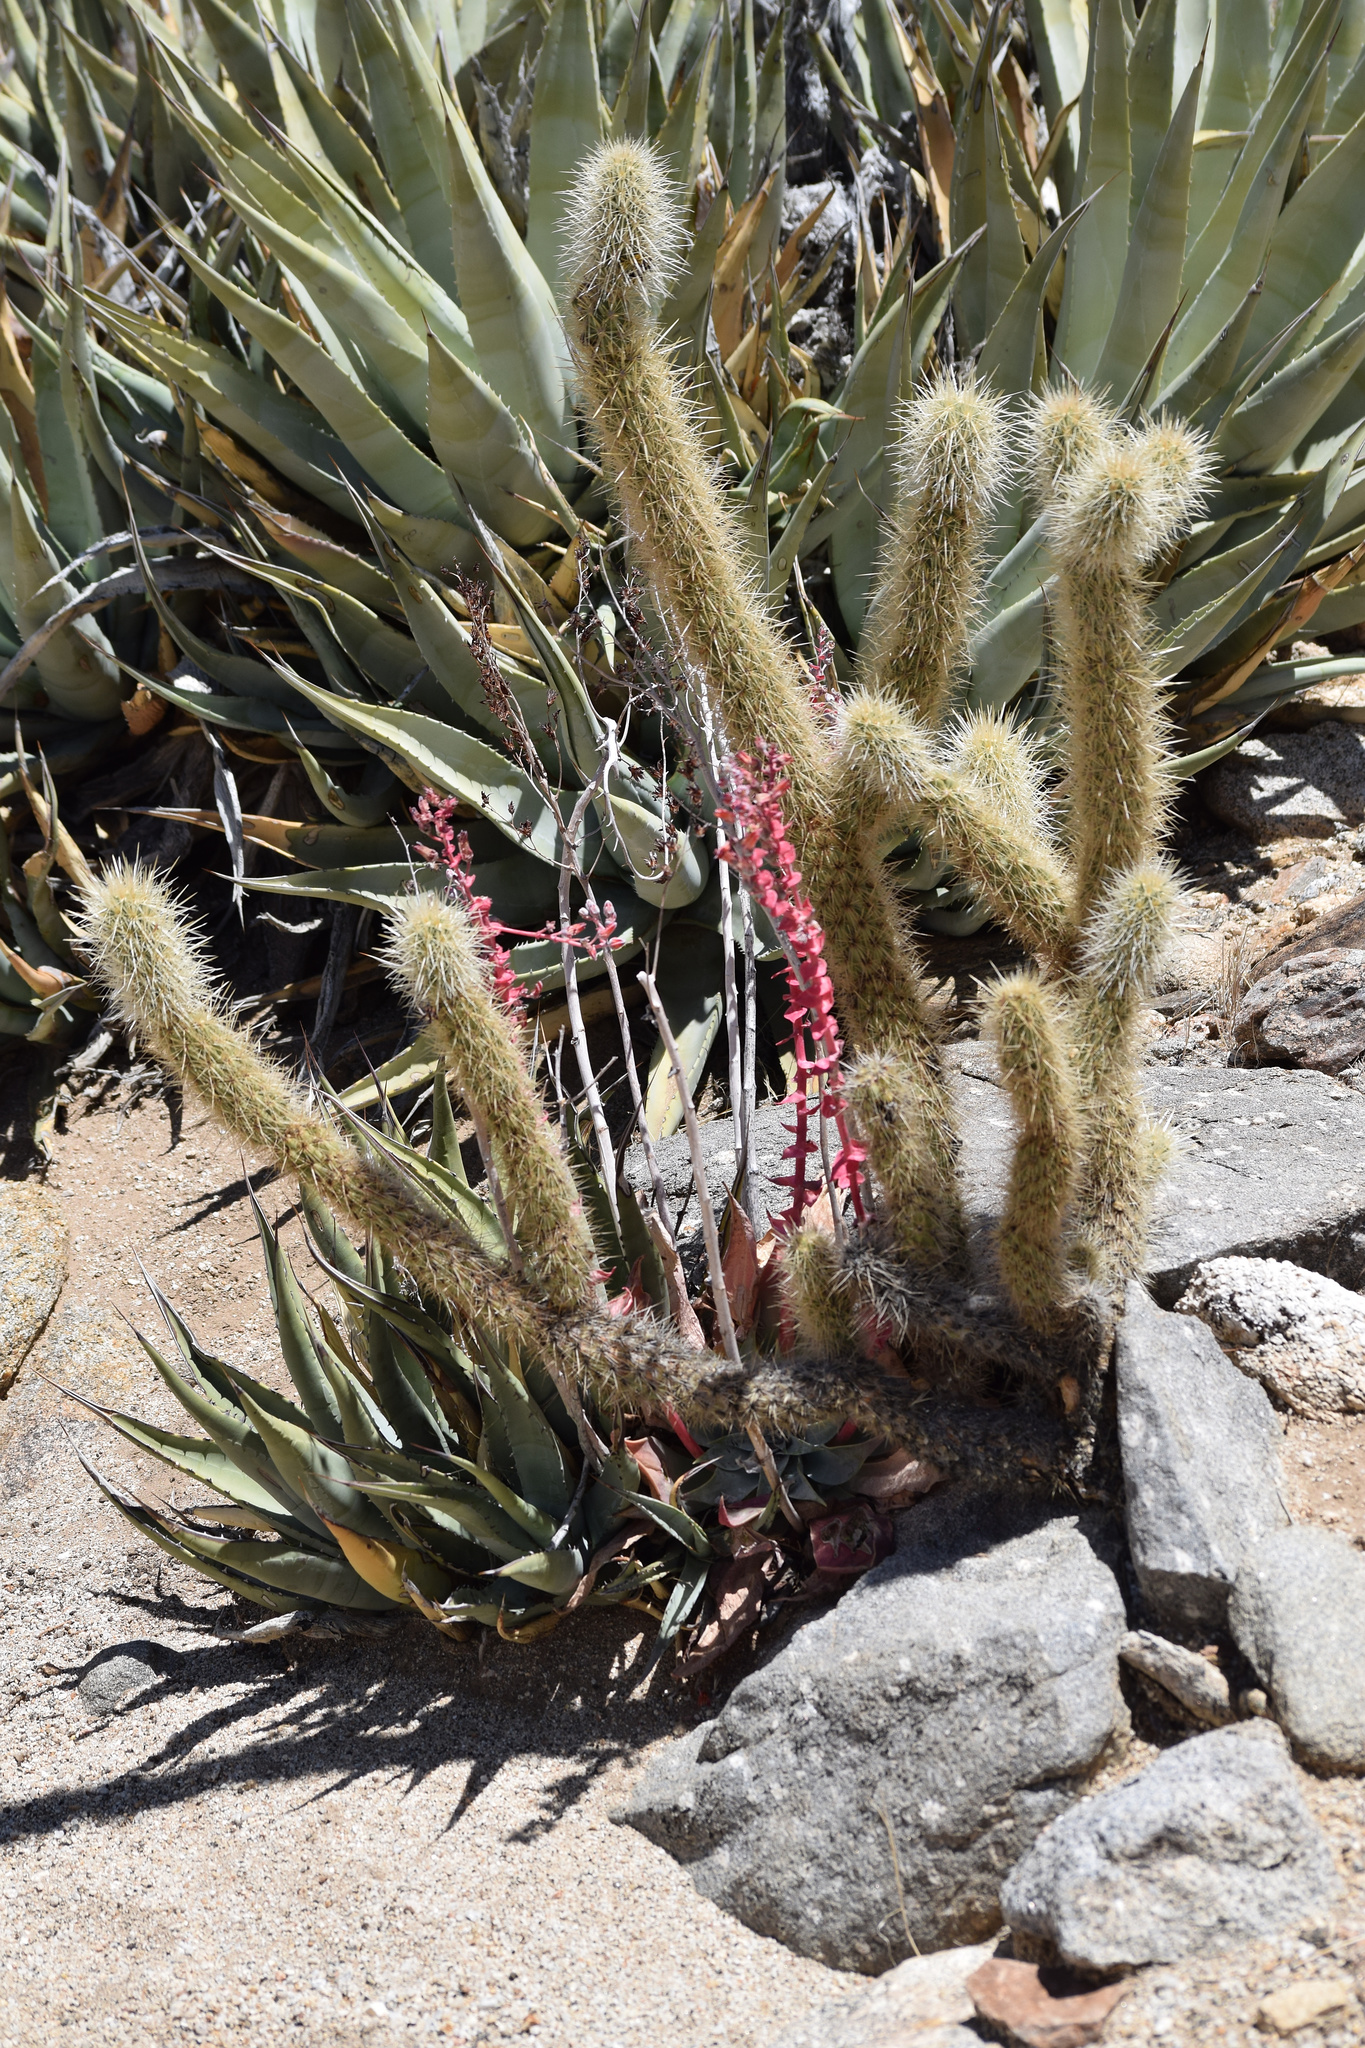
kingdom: Plantae
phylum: Tracheophyta
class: Magnoliopsida
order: Saxifragales
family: Crassulaceae
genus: Dudleya
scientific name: Dudleya arizonica
